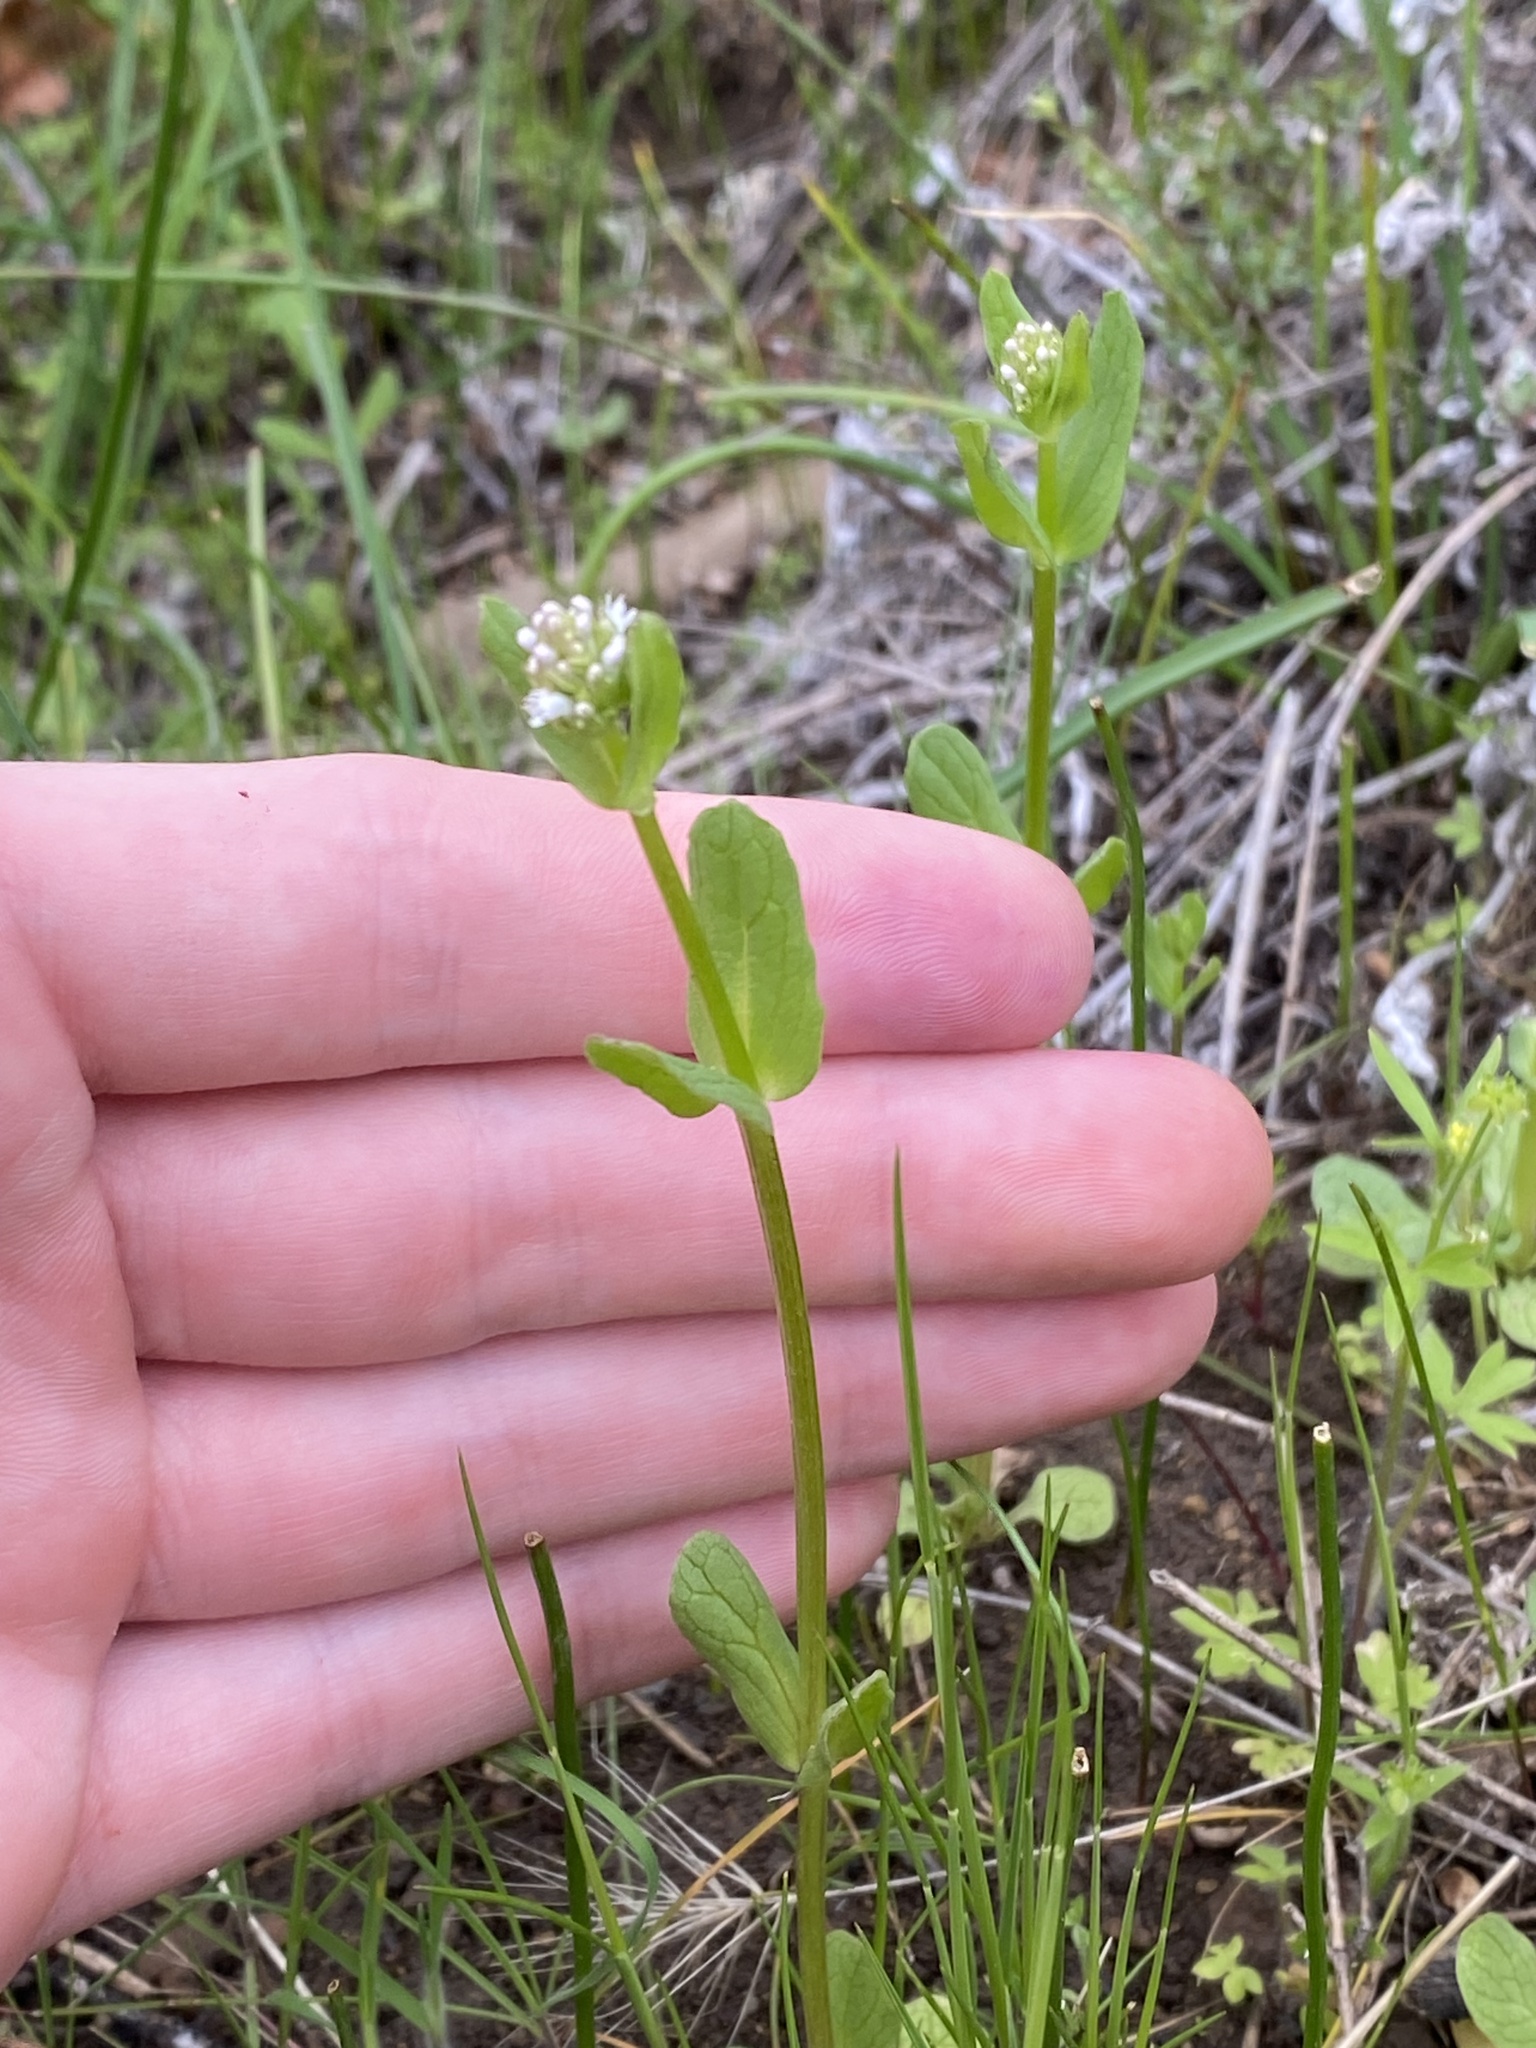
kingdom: Plantae
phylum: Tracheophyta
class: Magnoliopsida
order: Dipsacales
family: Caprifoliaceae
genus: Plectritis
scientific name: Plectritis macroptera
